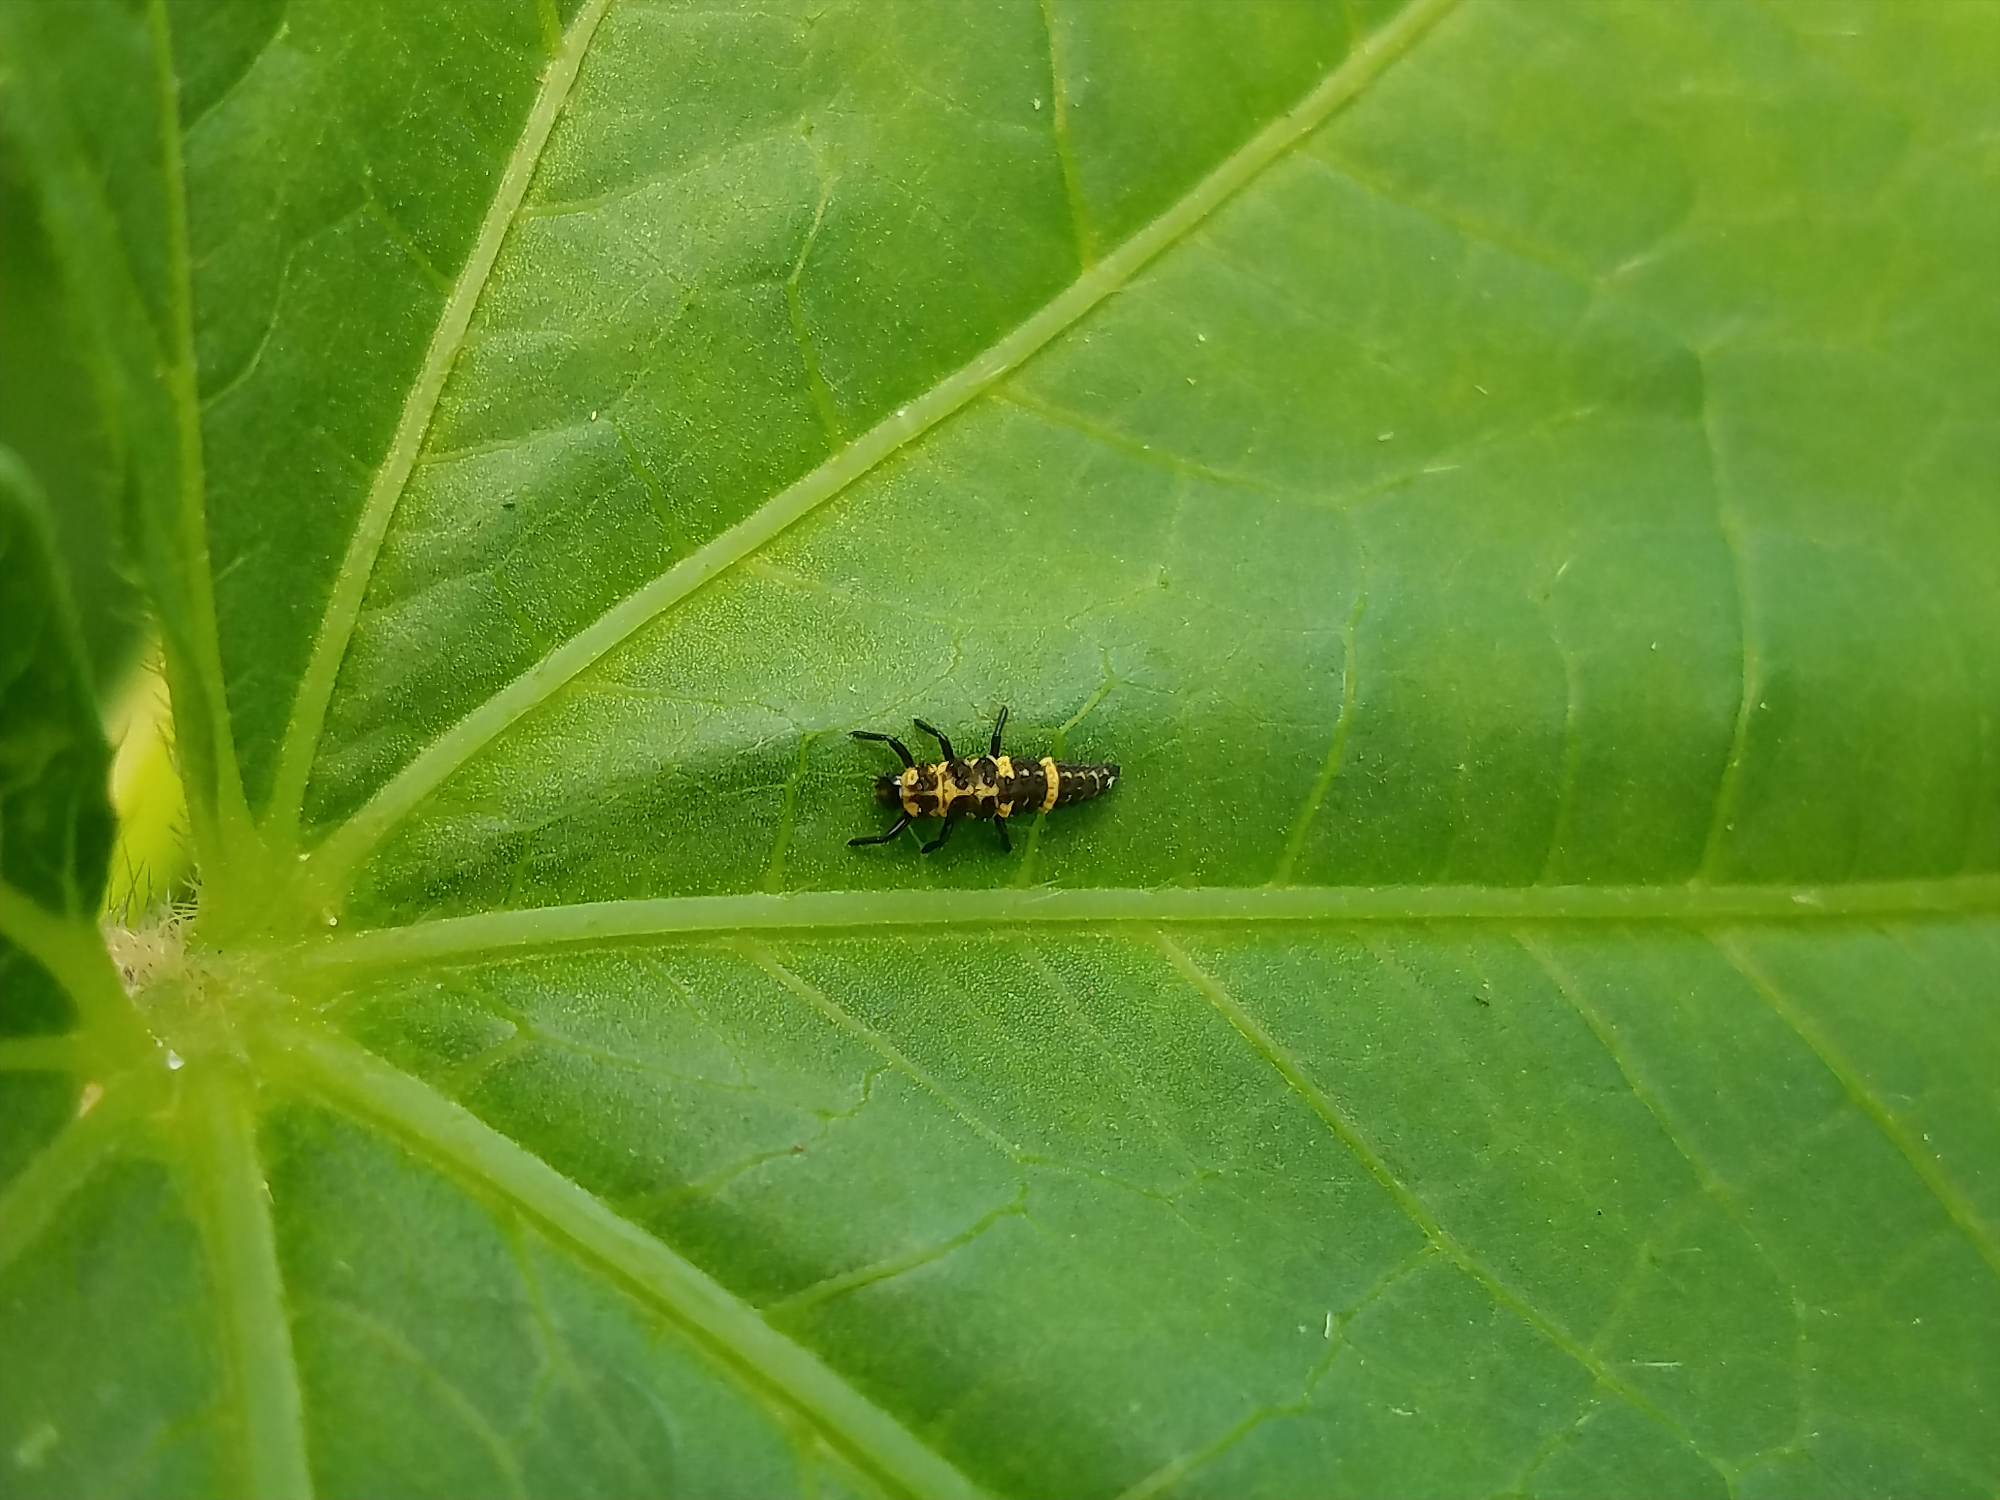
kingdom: Animalia
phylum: Arthropoda
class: Insecta
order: Coleoptera
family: Coccinellidae
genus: Coleomegilla
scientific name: Coleomegilla maculata
